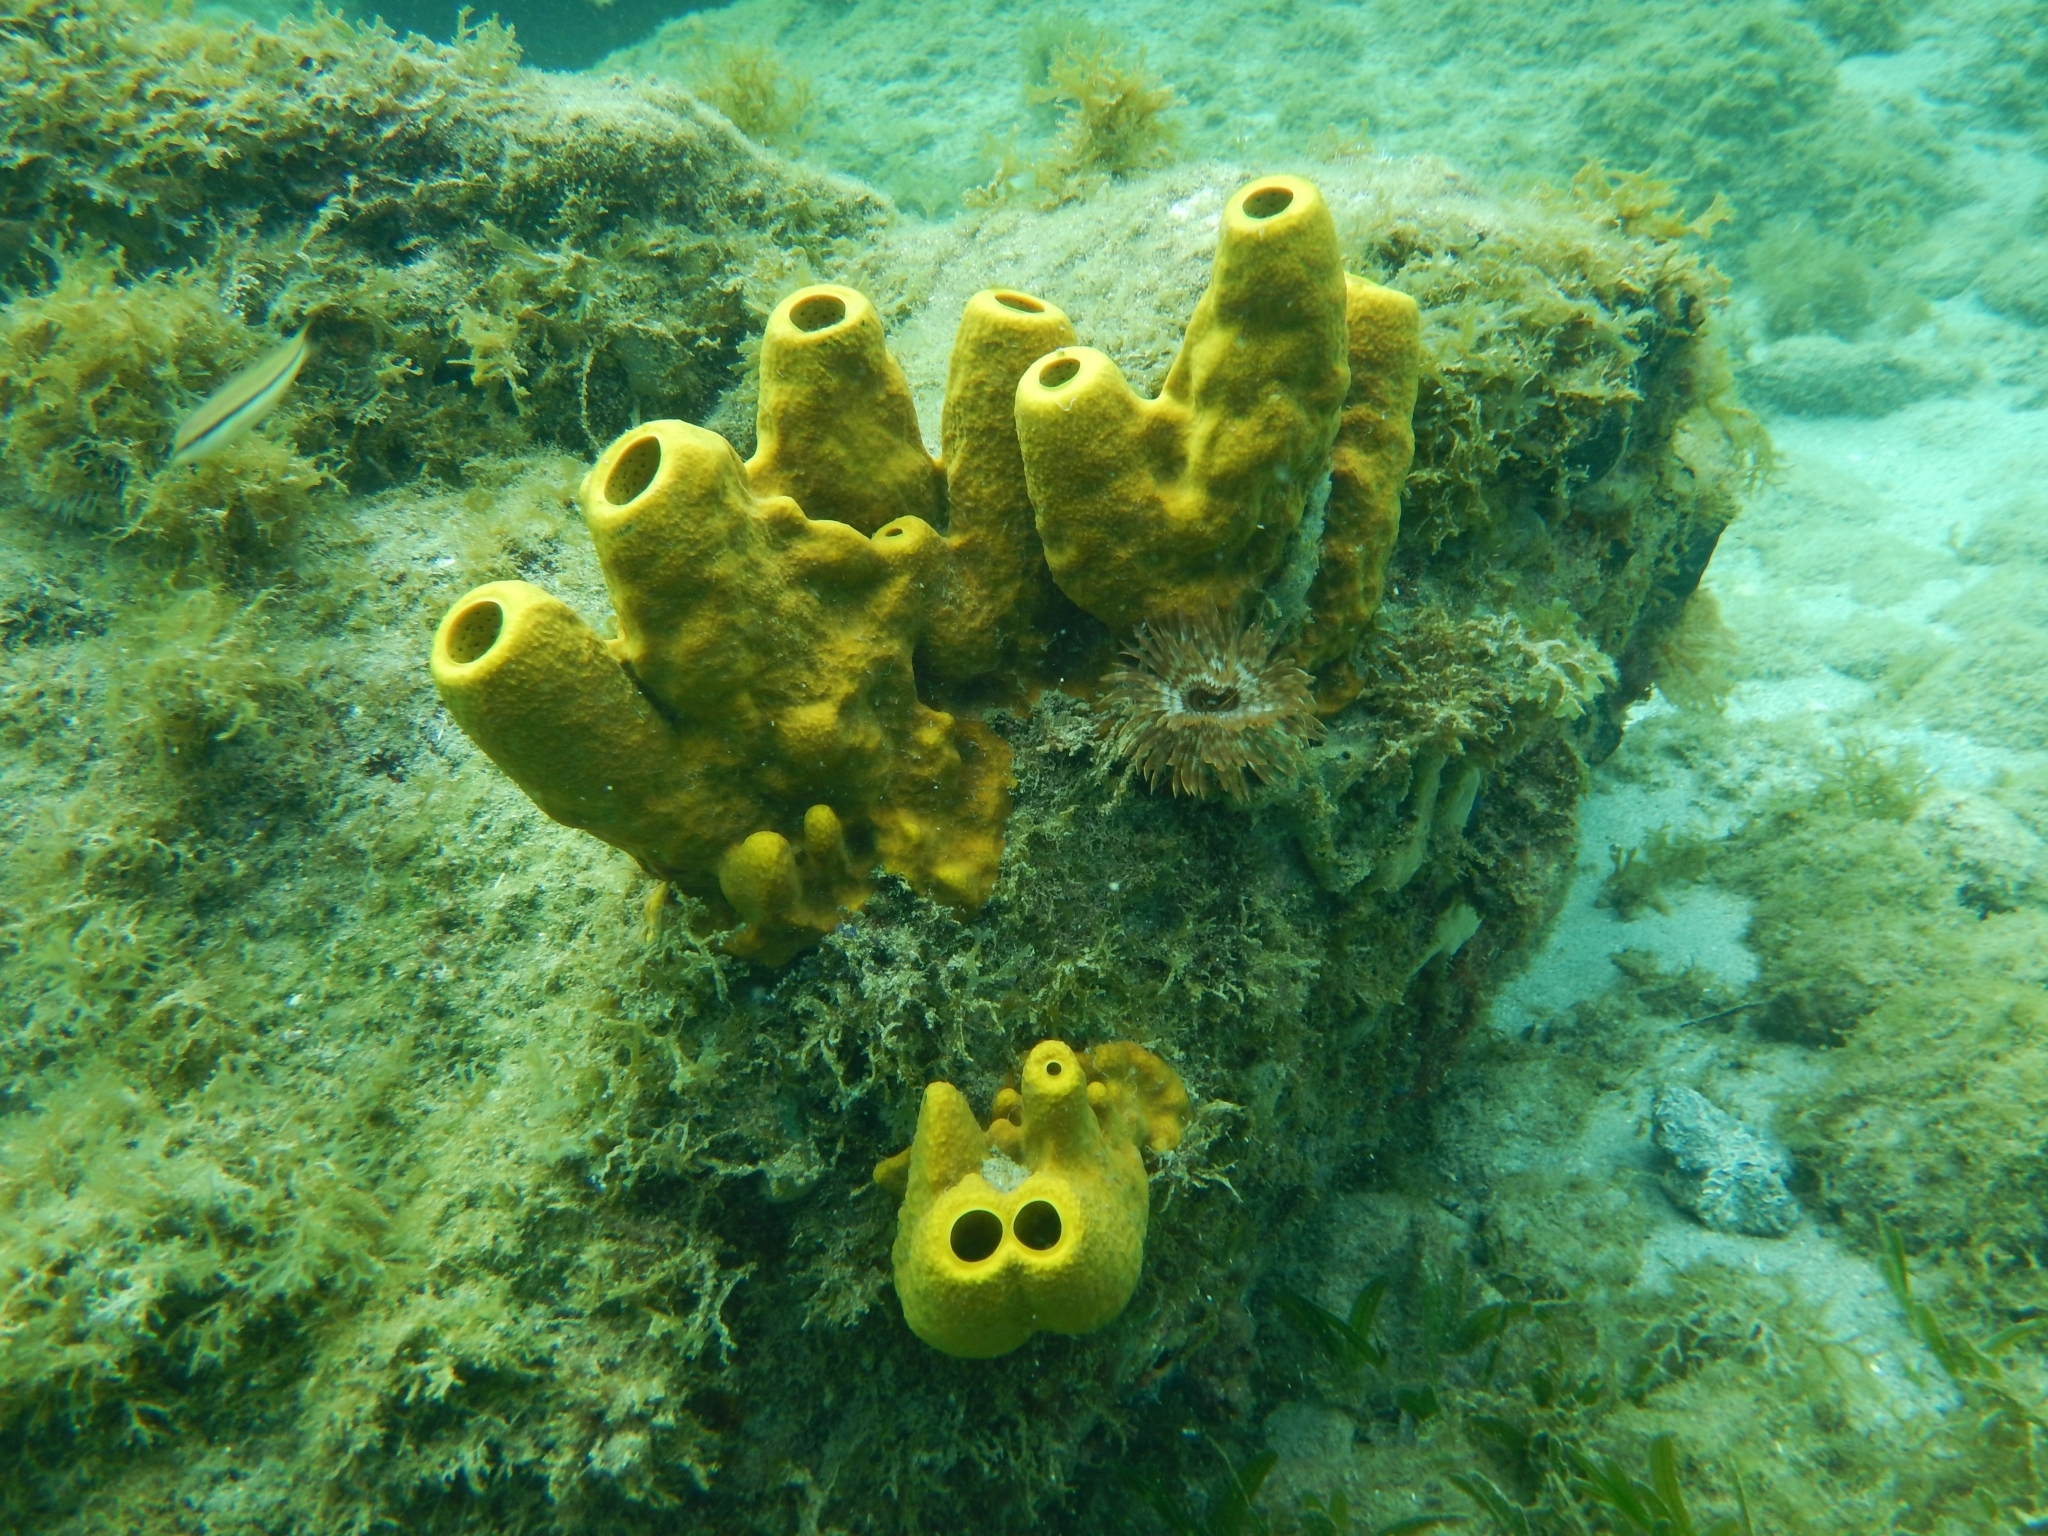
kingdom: Animalia
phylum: Porifera
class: Demospongiae
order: Verongiida
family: Aplysinidae
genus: Aplysina
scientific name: Aplysina fistularis
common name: Candle sponge
